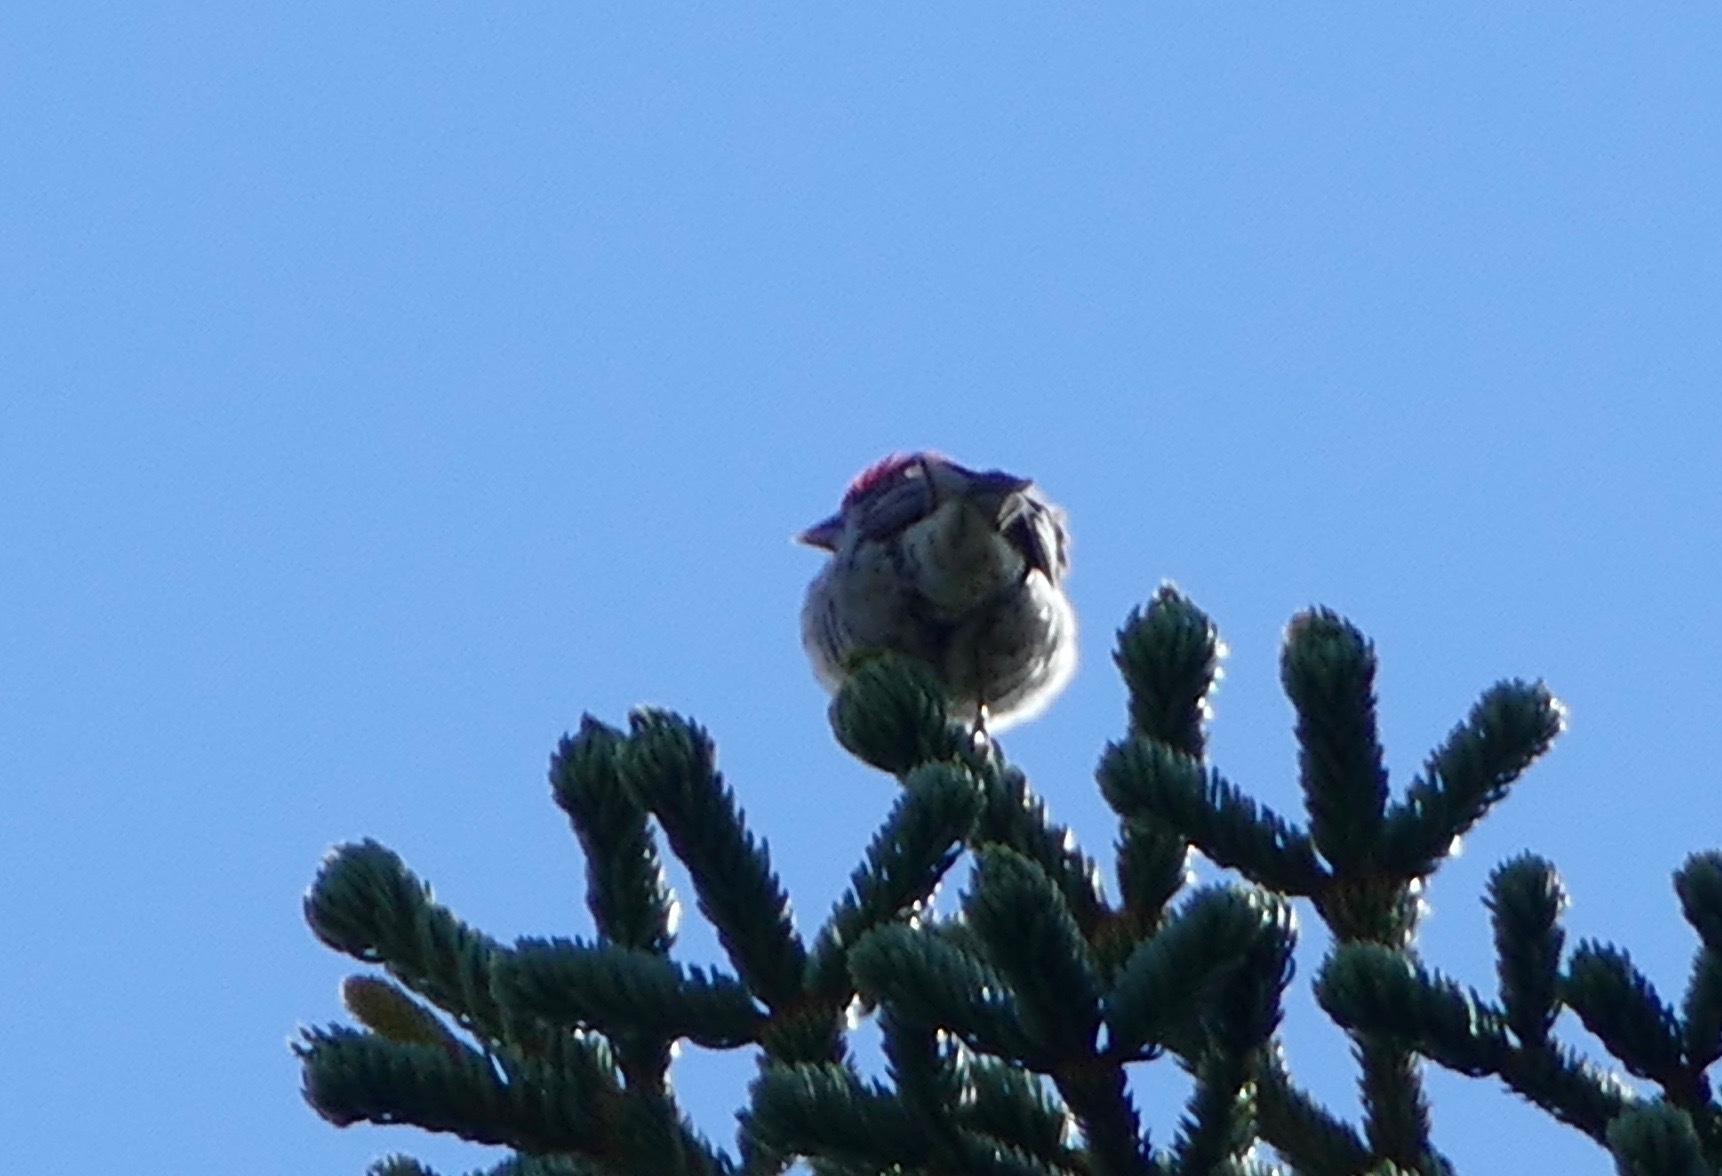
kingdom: Animalia
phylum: Chordata
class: Aves
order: Passeriformes
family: Fringillidae
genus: Pinicola
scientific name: Pinicola enucleator
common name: Pine grosbeak
